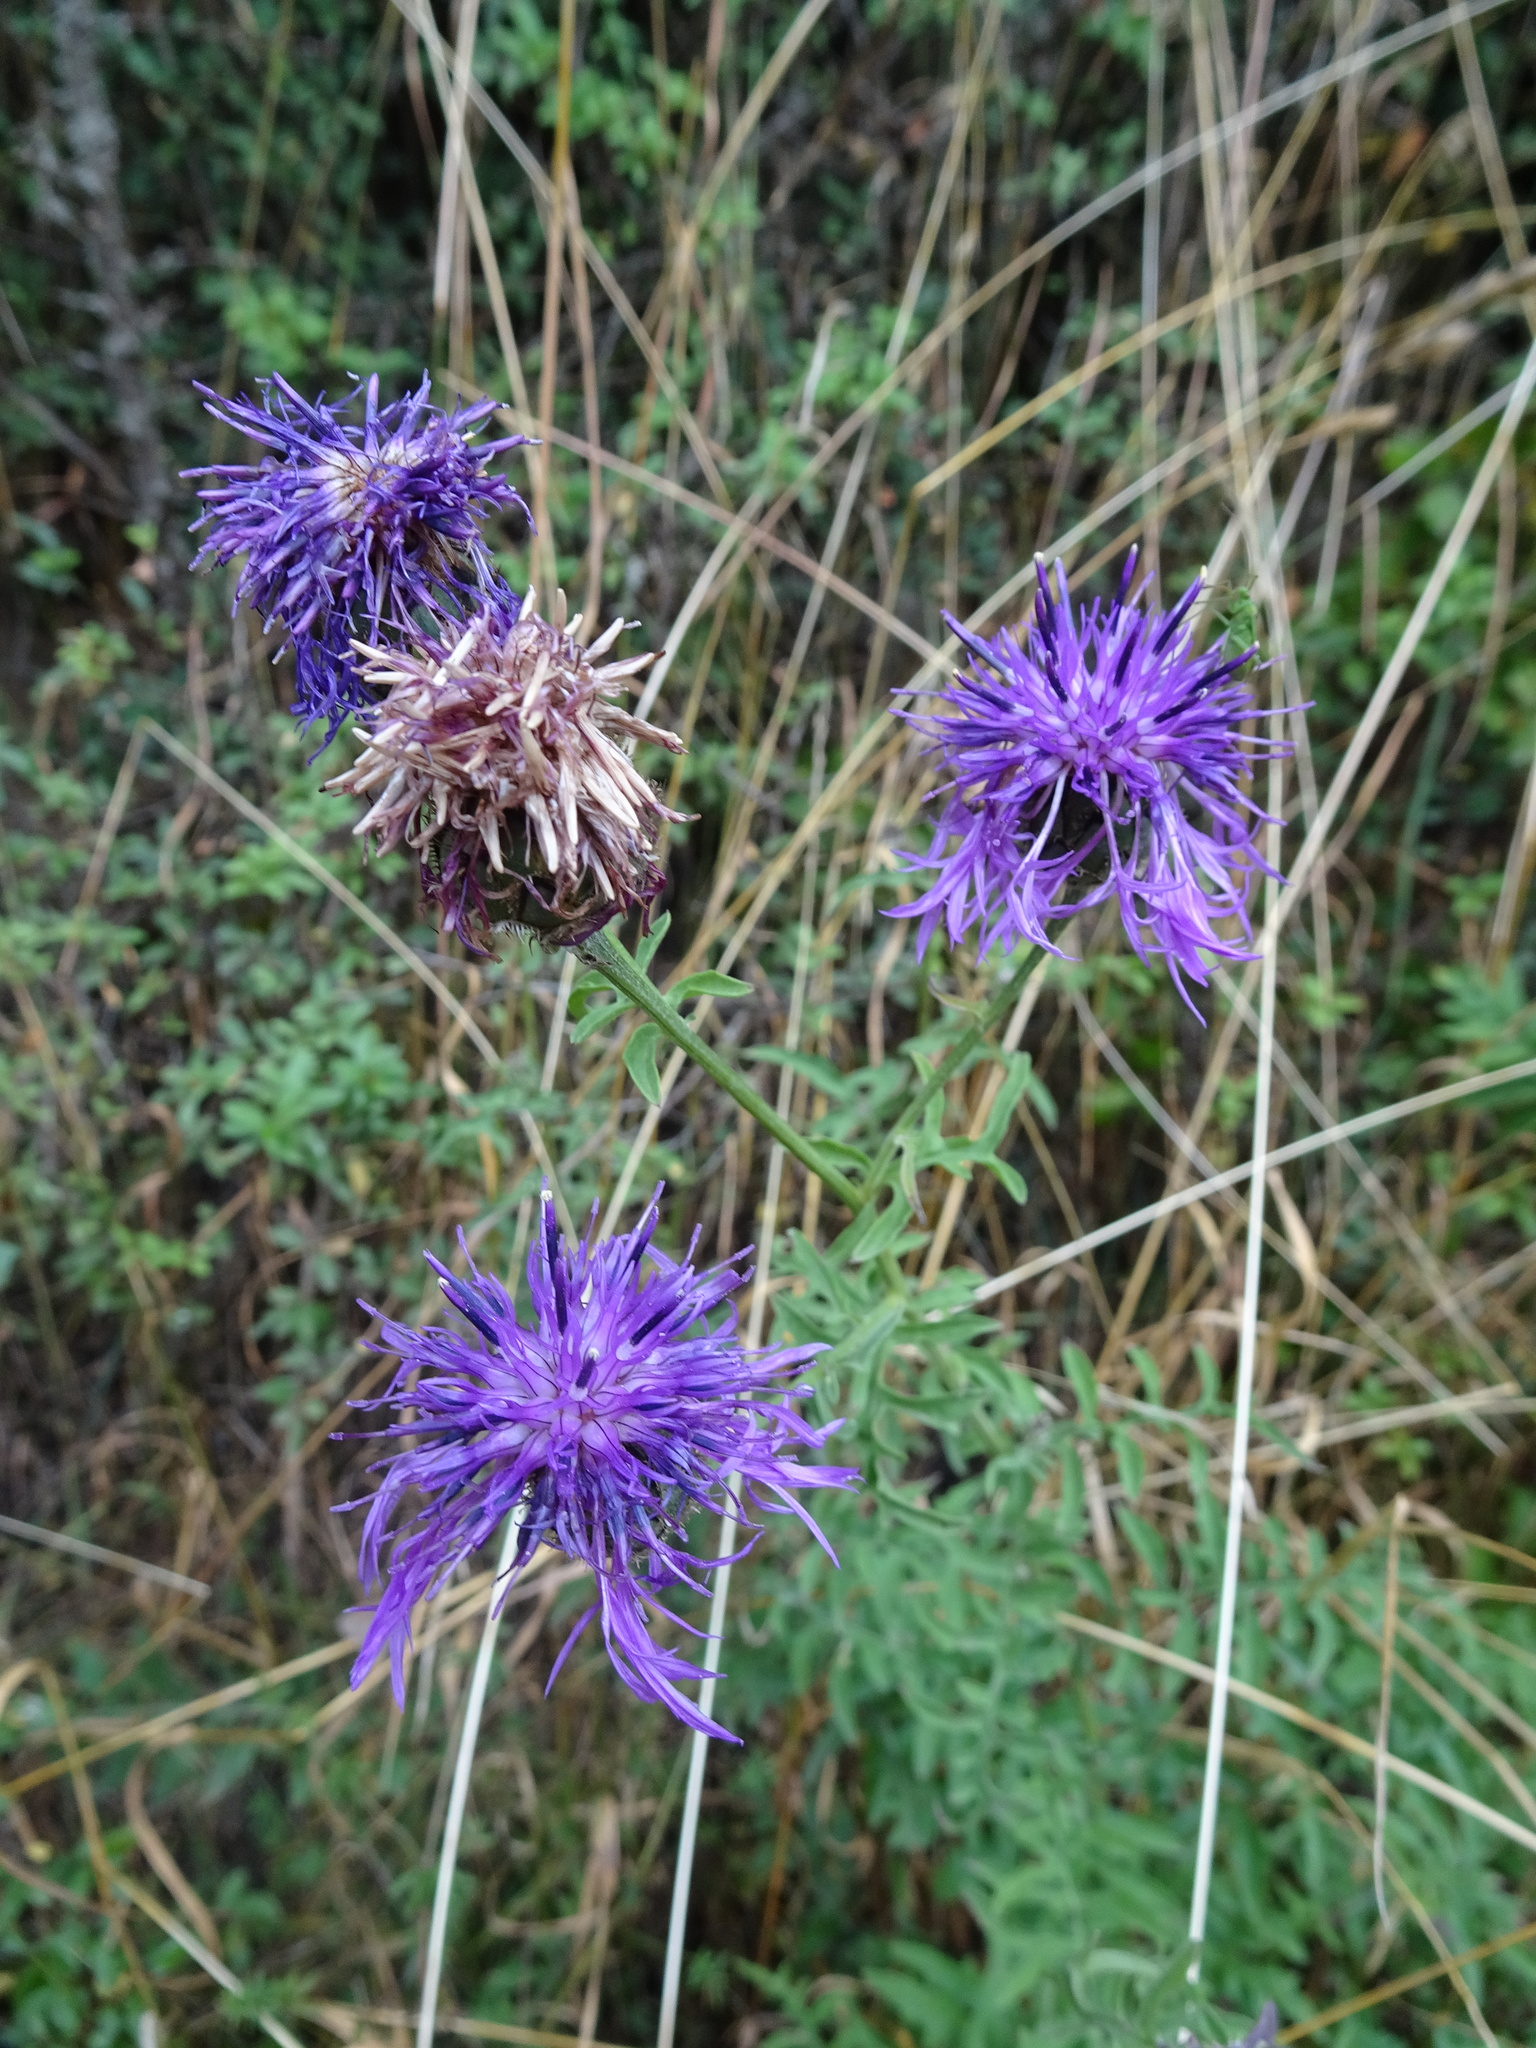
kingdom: Plantae
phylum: Tracheophyta
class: Magnoliopsida
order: Asterales
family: Asteraceae
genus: Centaurea
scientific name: Centaurea scabiosa
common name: Greater knapweed
